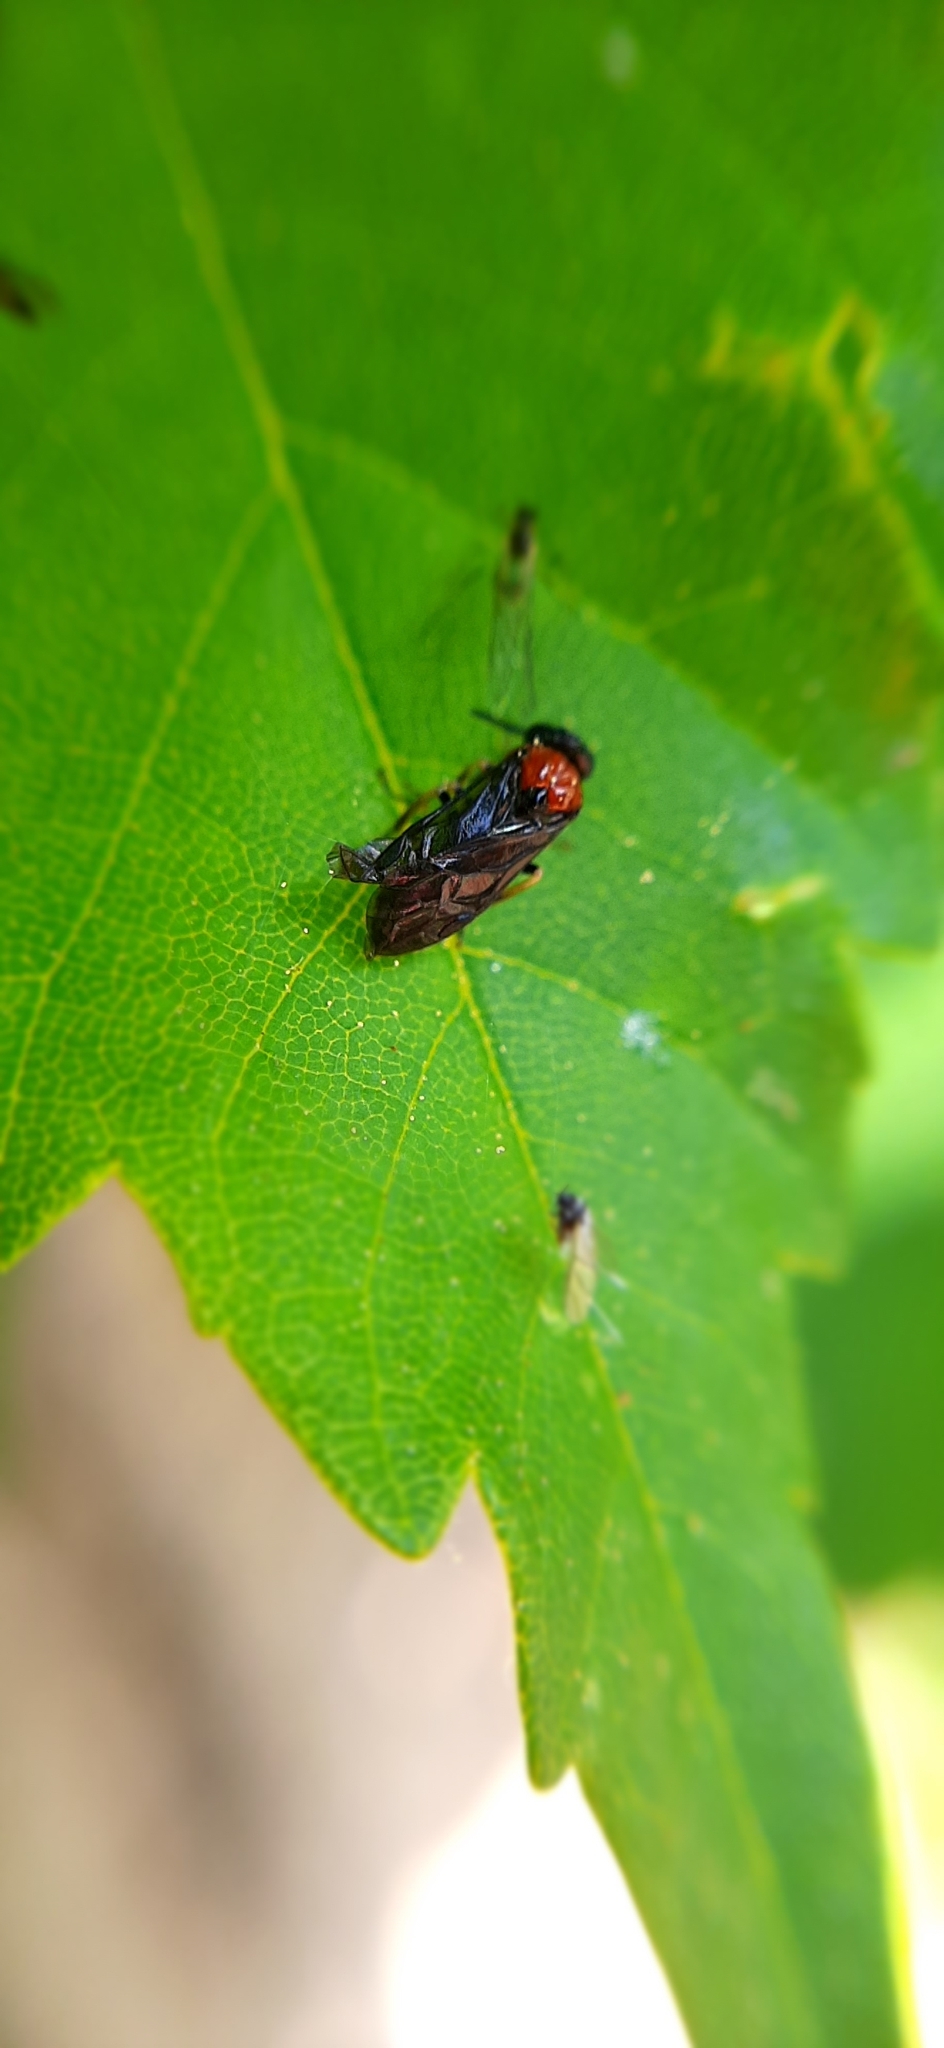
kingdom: Animalia
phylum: Arthropoda
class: Insecta
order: Hymenoptera
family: Tenthredinidae
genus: Eutomostethus
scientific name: Eutomostethus ephippium
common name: Tenthredid wasp
